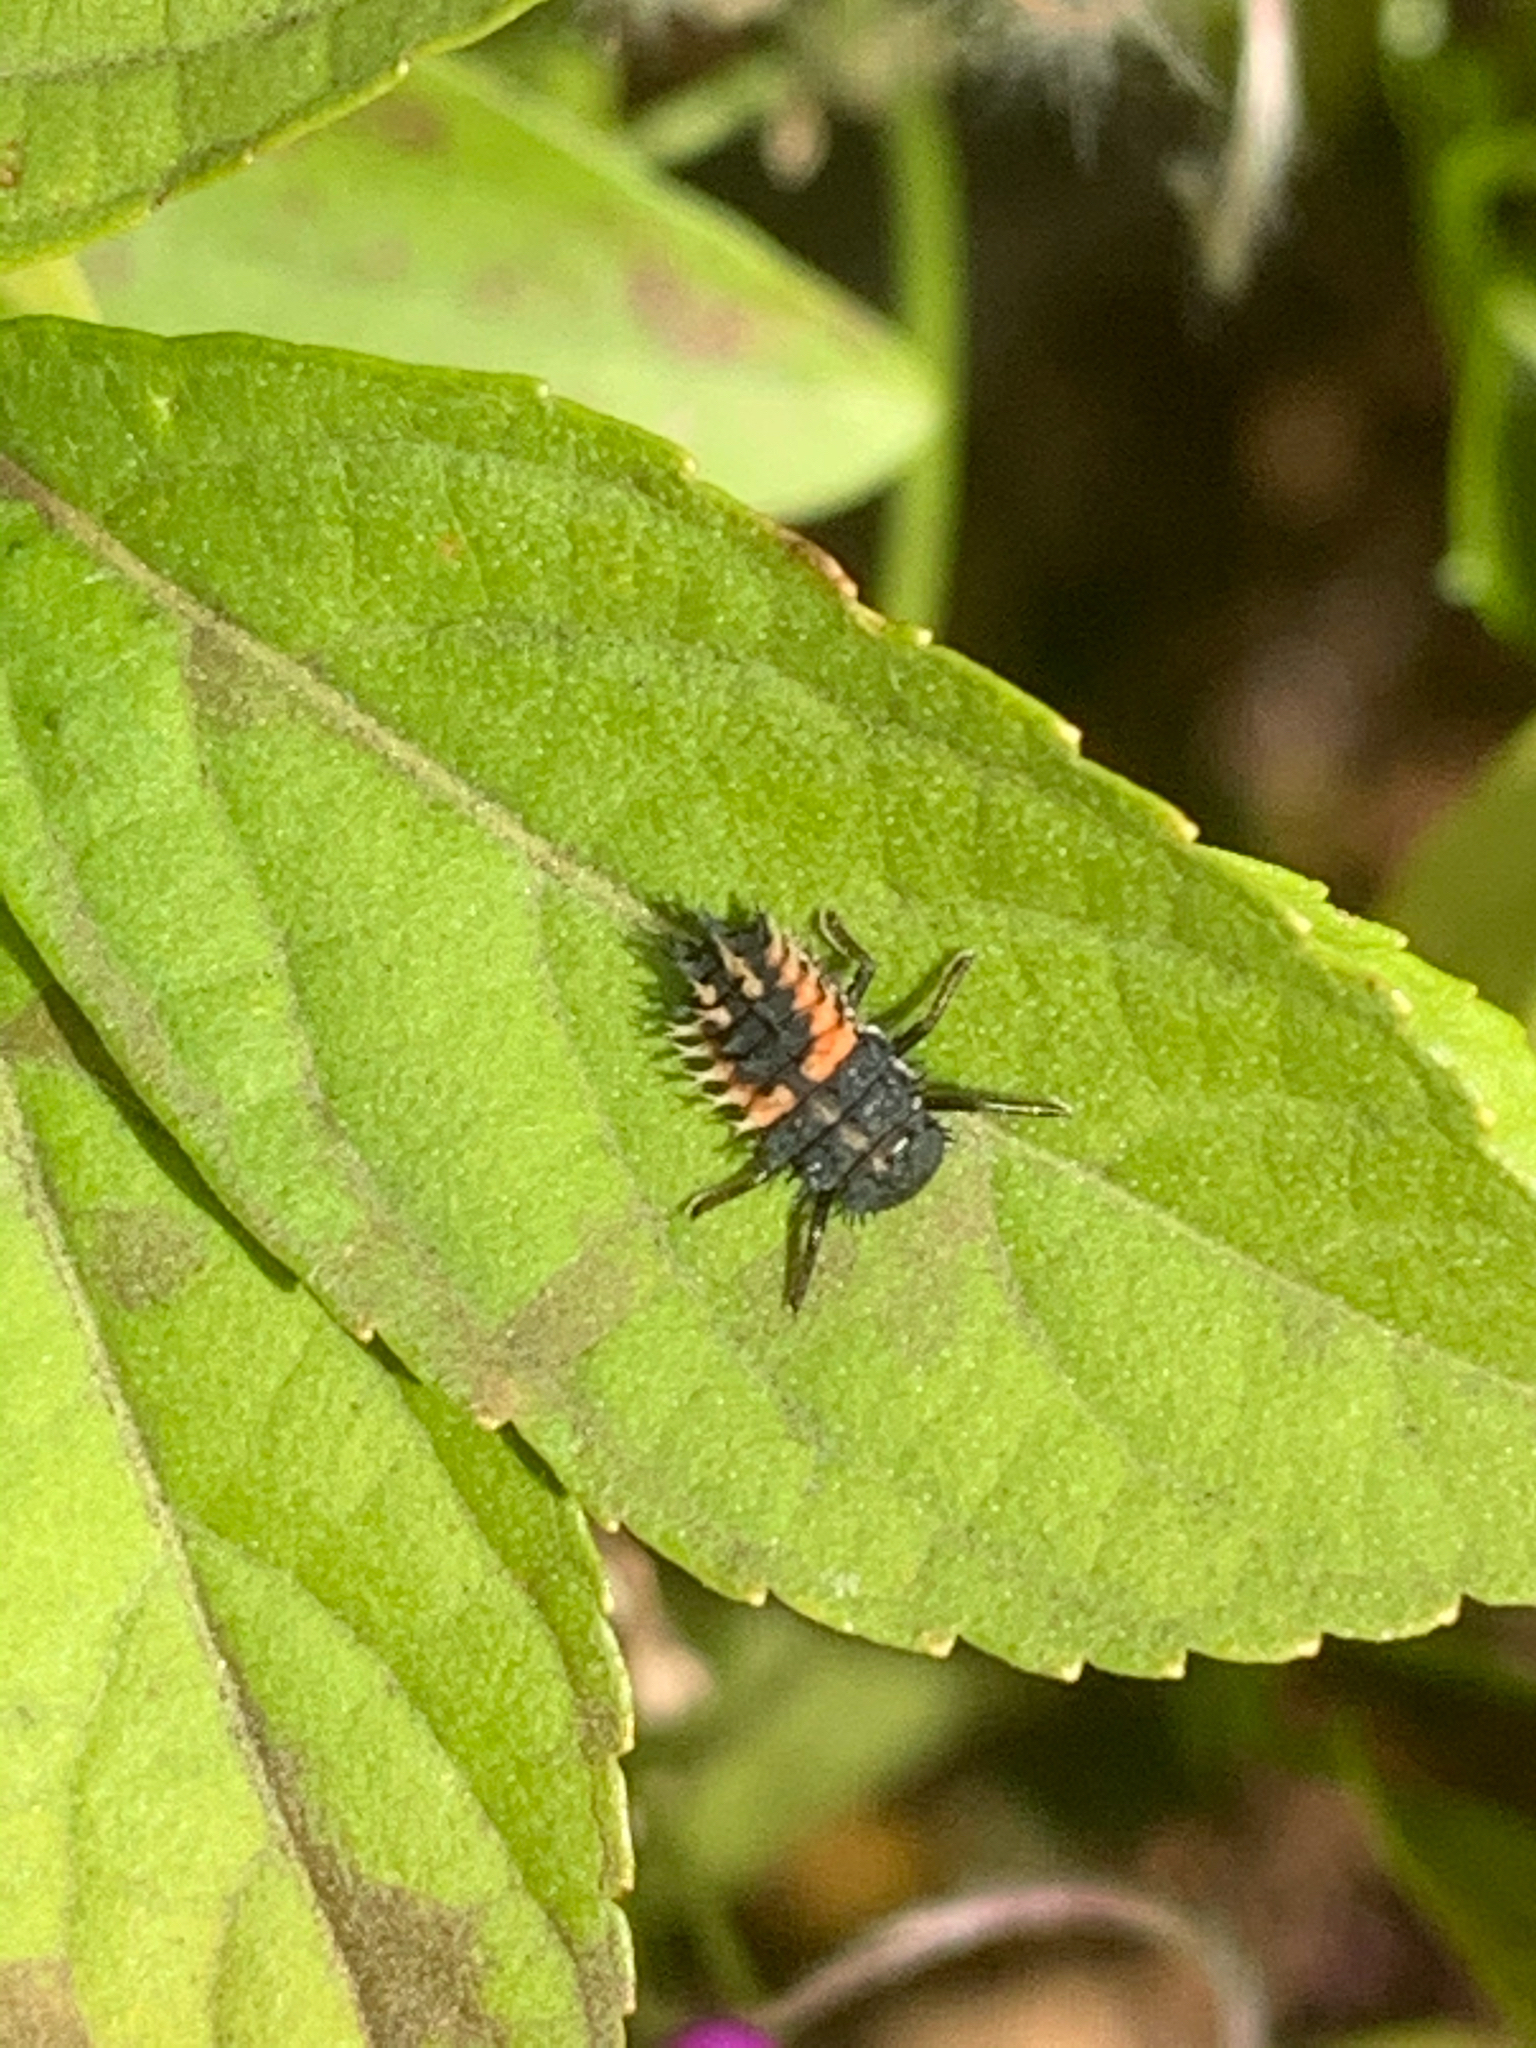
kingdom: Animalia
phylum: Arthropoda
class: Insecta
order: Coleoptera
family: Coccinellidae
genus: Harmonia
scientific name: Harmonia axyridis
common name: Harlequin ladybird
